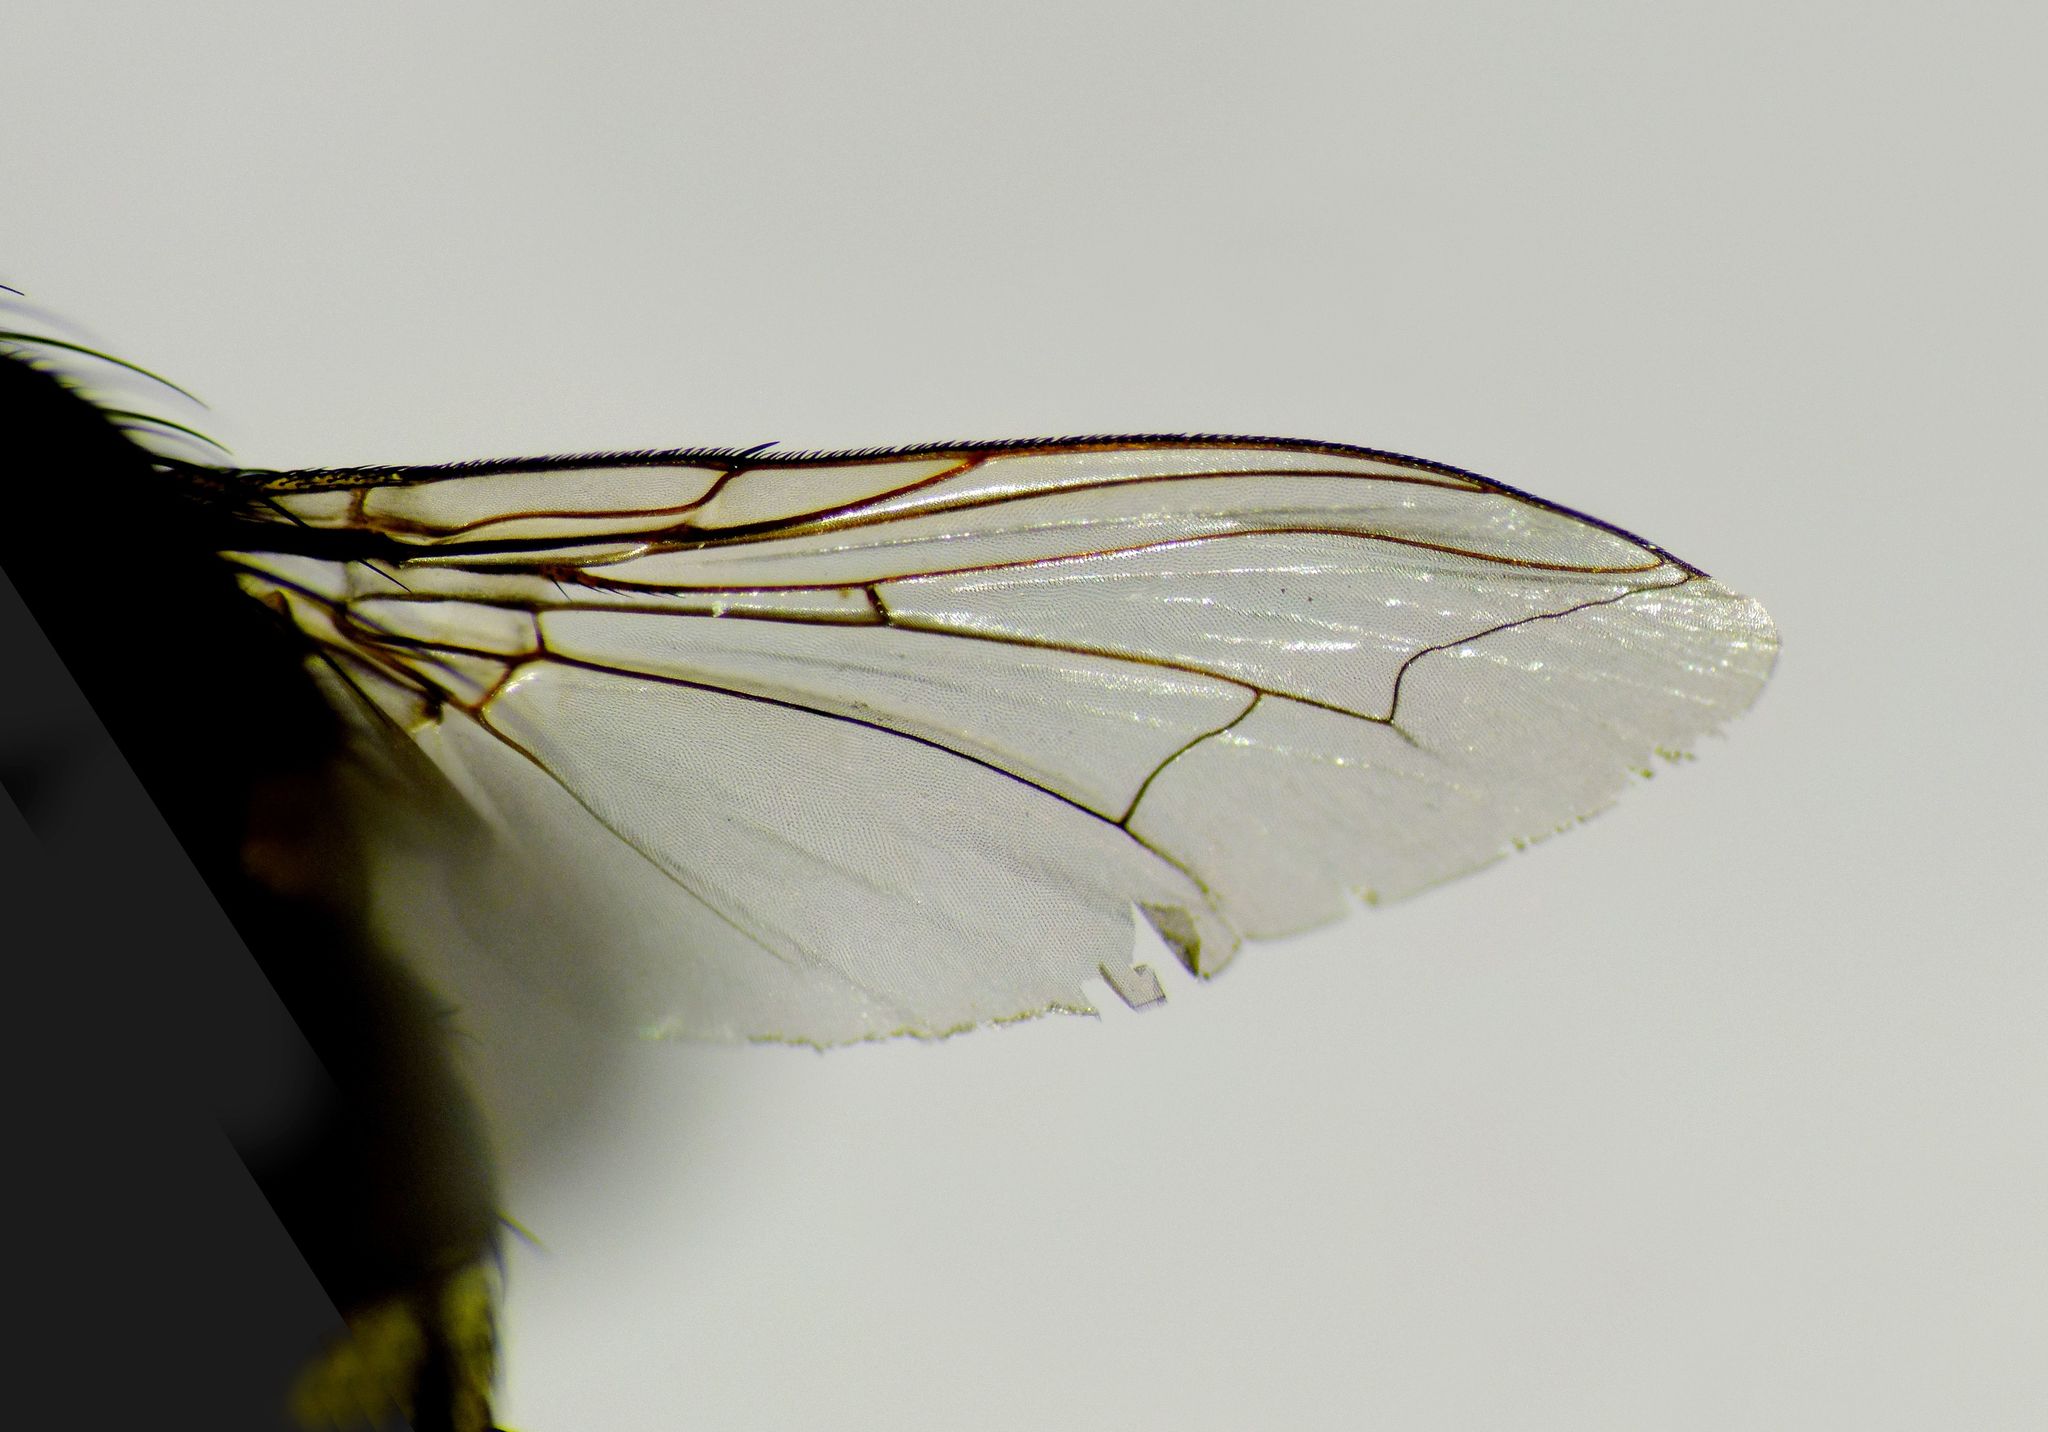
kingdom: Animalia
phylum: Arthropoda
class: Insecta
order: Diptera
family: Sarcophagidae
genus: Oxysarcodexia
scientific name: Oxysarcodexia varia
